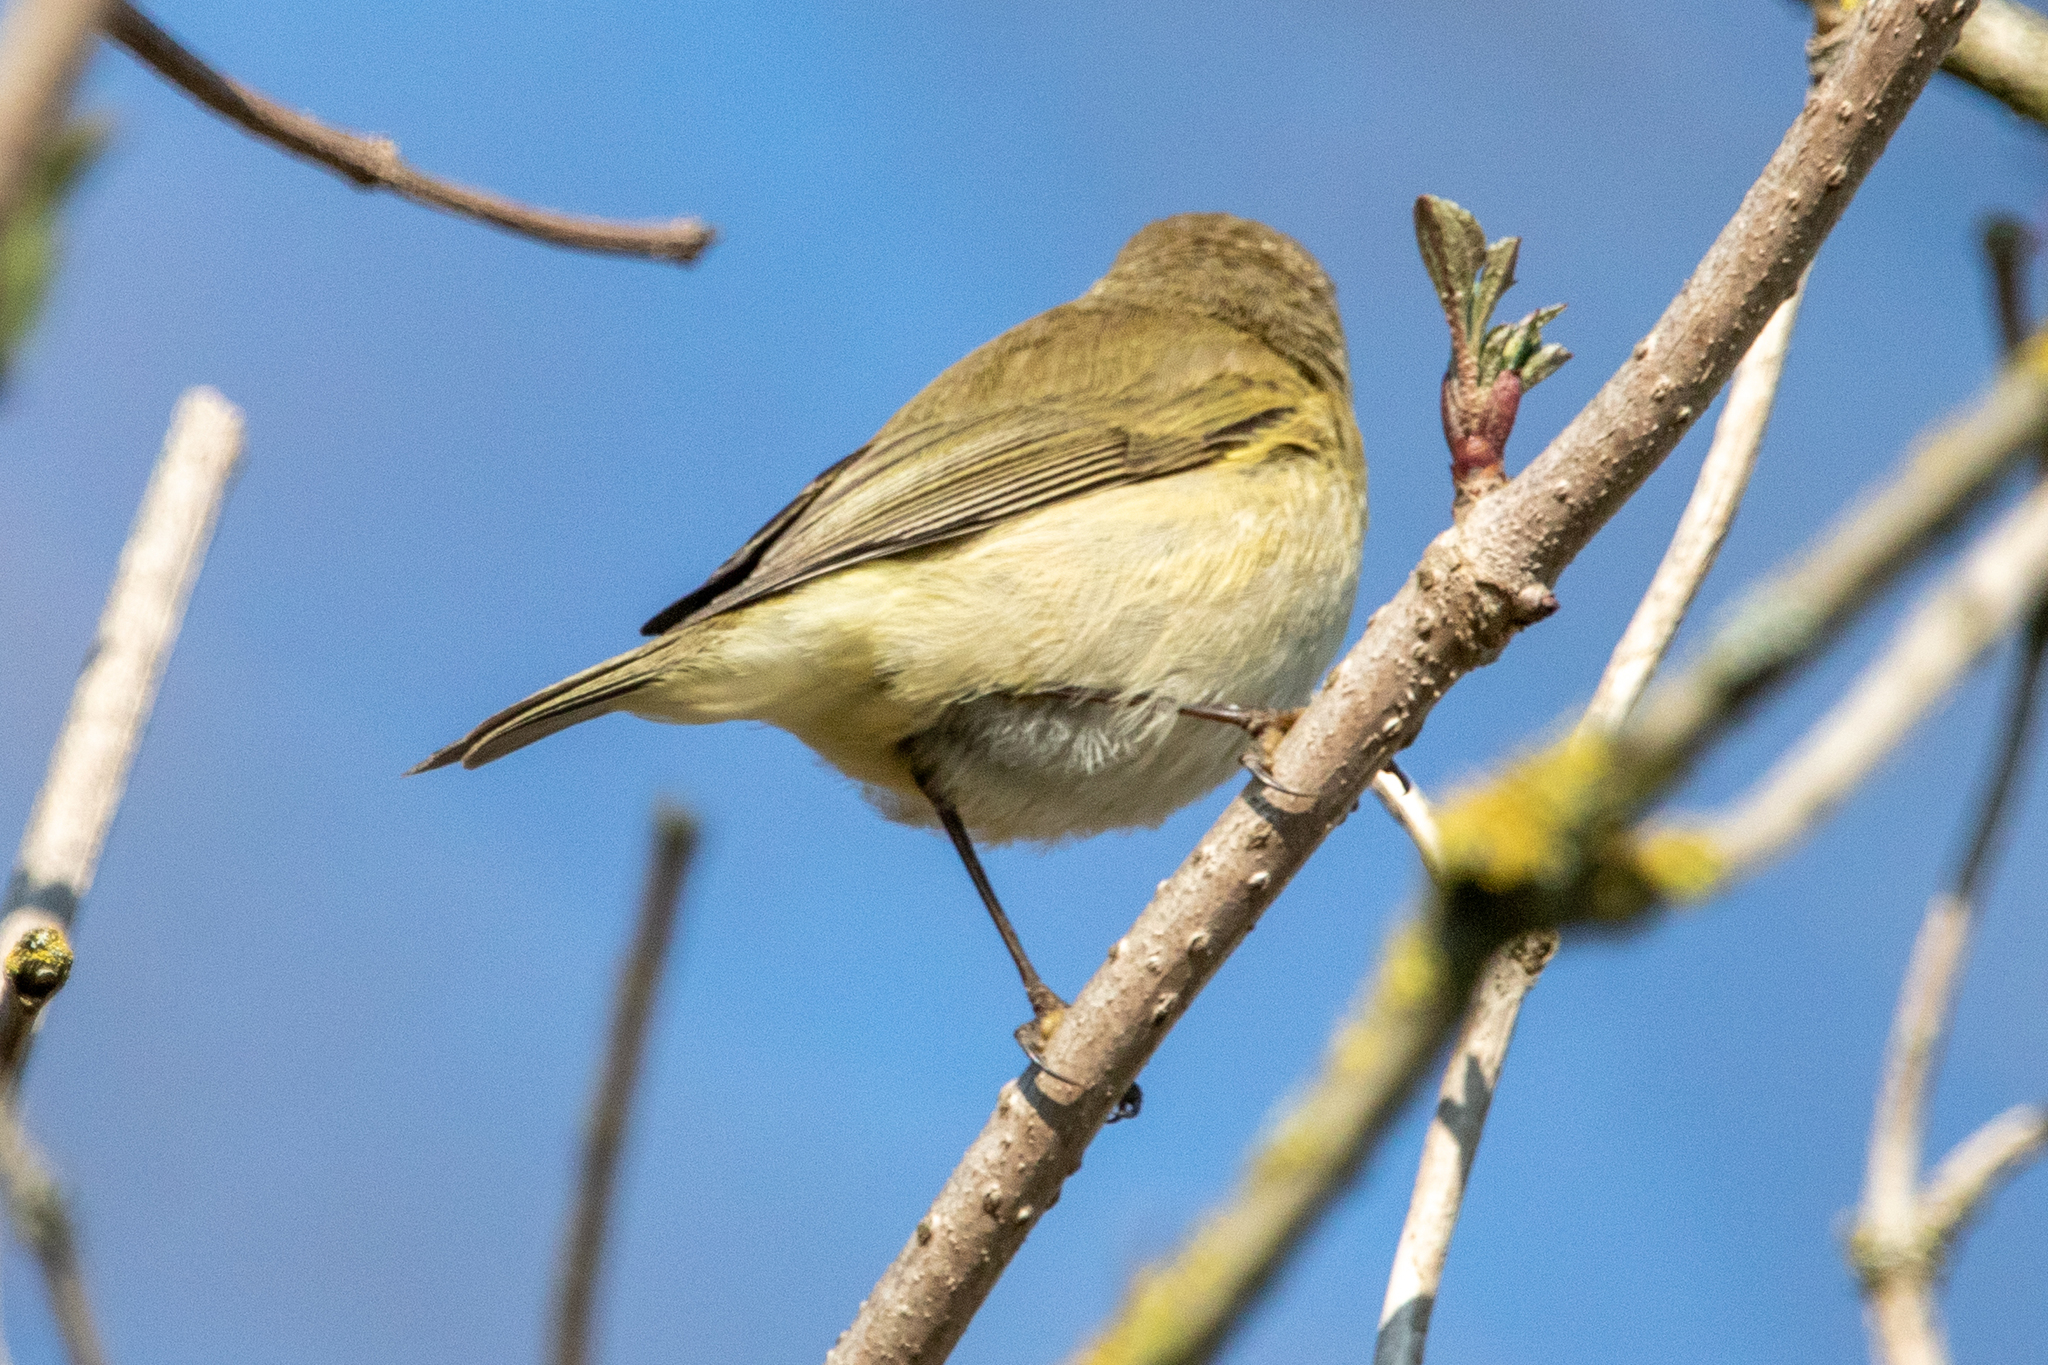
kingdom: Animalia
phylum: Chordata
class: Aves
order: Passeriformes
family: Phylloscopidae
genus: Phylloscopus
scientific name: Phylloscopus collybita
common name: Common chiffchaff
